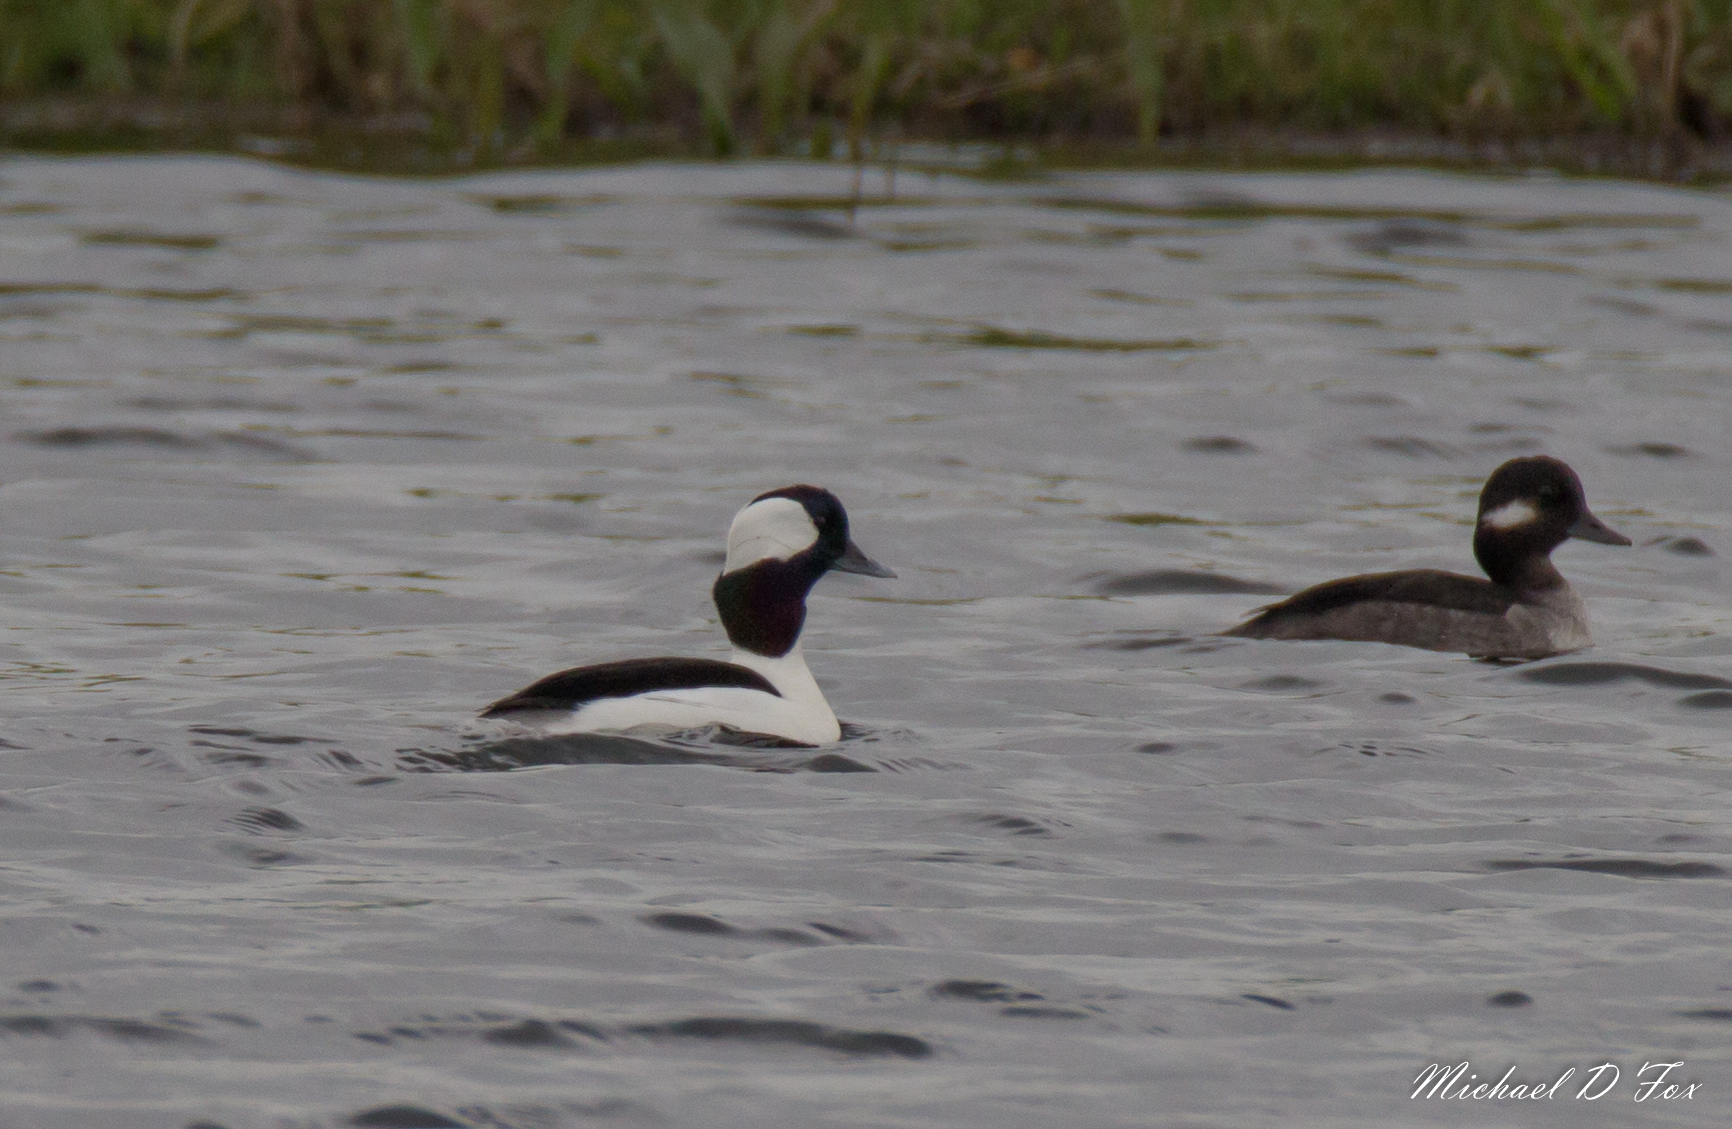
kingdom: Animalia
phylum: Chordata
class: Aves
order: Anseriformes
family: Anatidae
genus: Bucephala
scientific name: Bucephala albeola
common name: Bufflehead
